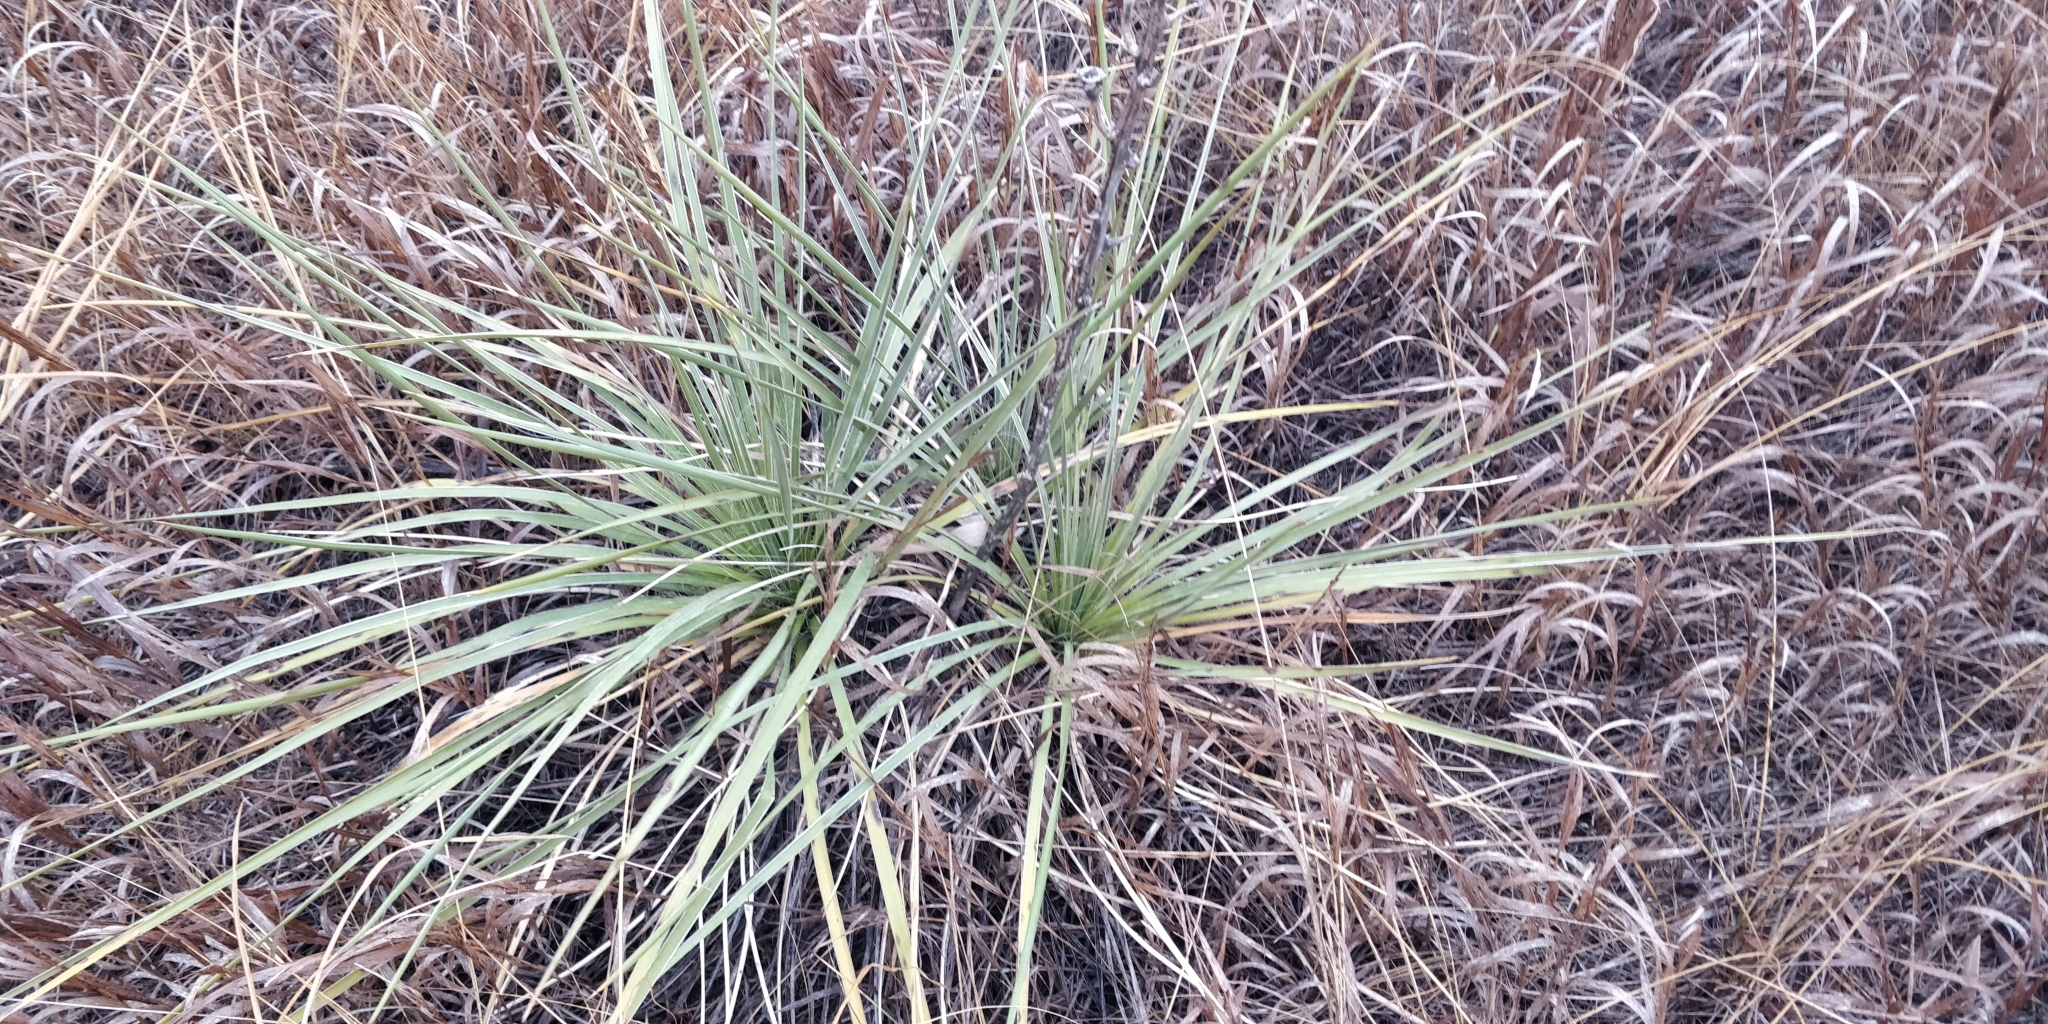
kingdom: Plantae
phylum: Tracheophyta
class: Liliopsida
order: Asparagales
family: Asparagaceae
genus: Yucca
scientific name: Yucca glauca
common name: Great plains yucca
